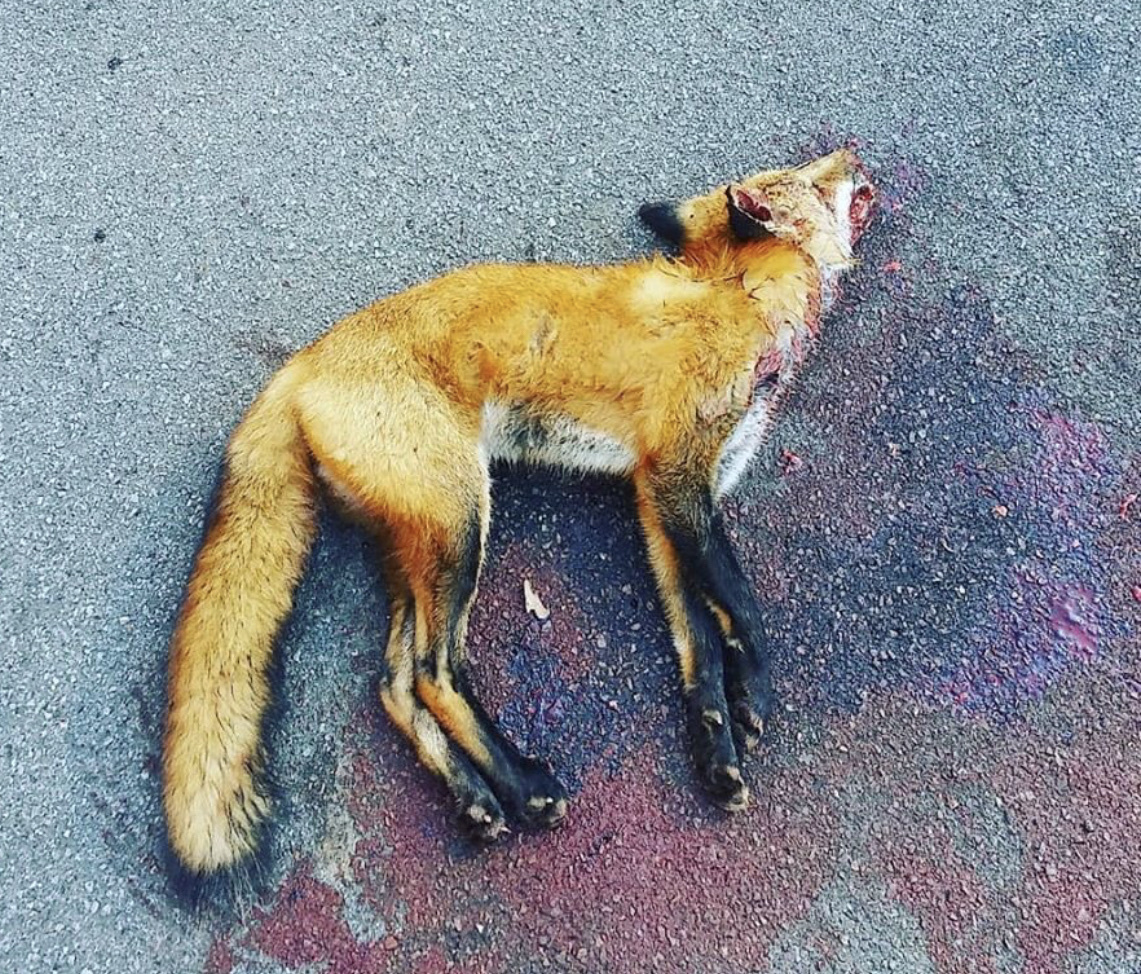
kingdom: Animalia
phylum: Chordata
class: Mammalia
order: Carnivora
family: Canidae
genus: Vulpes
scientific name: Vulpes vulpes
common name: Red fox
